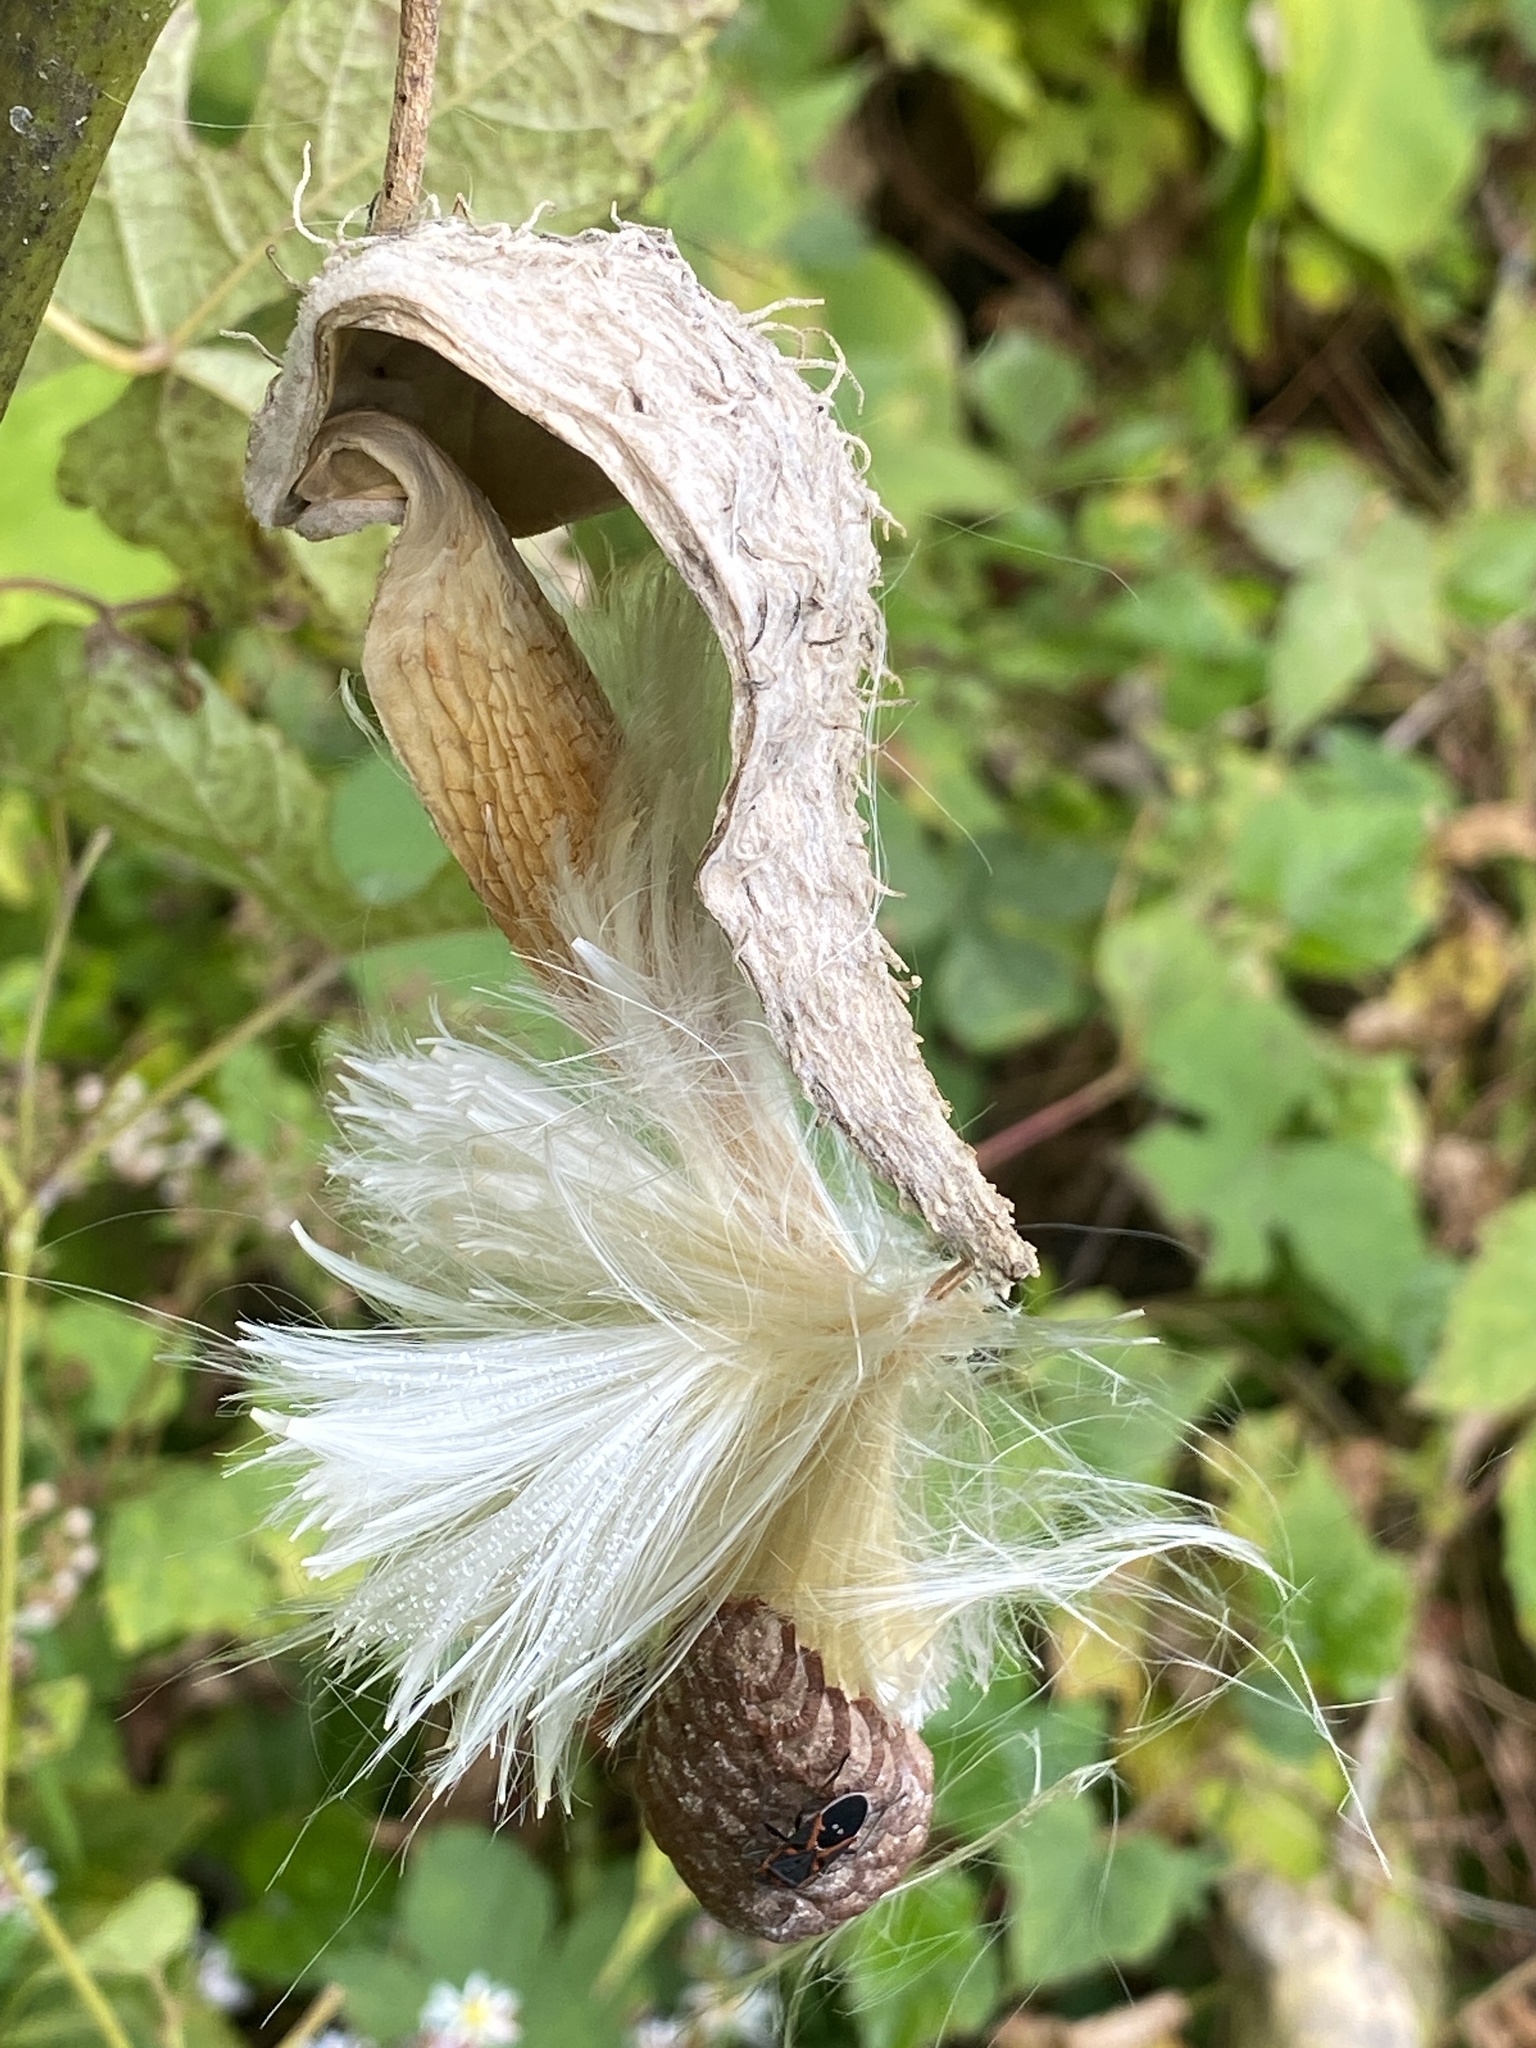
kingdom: Plantae
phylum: Tracheophyta
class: Magnoliopsida
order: Gentianales
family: Apocynaceae
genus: Asclepias
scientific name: Asclepias syriaca
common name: Common milkweed
